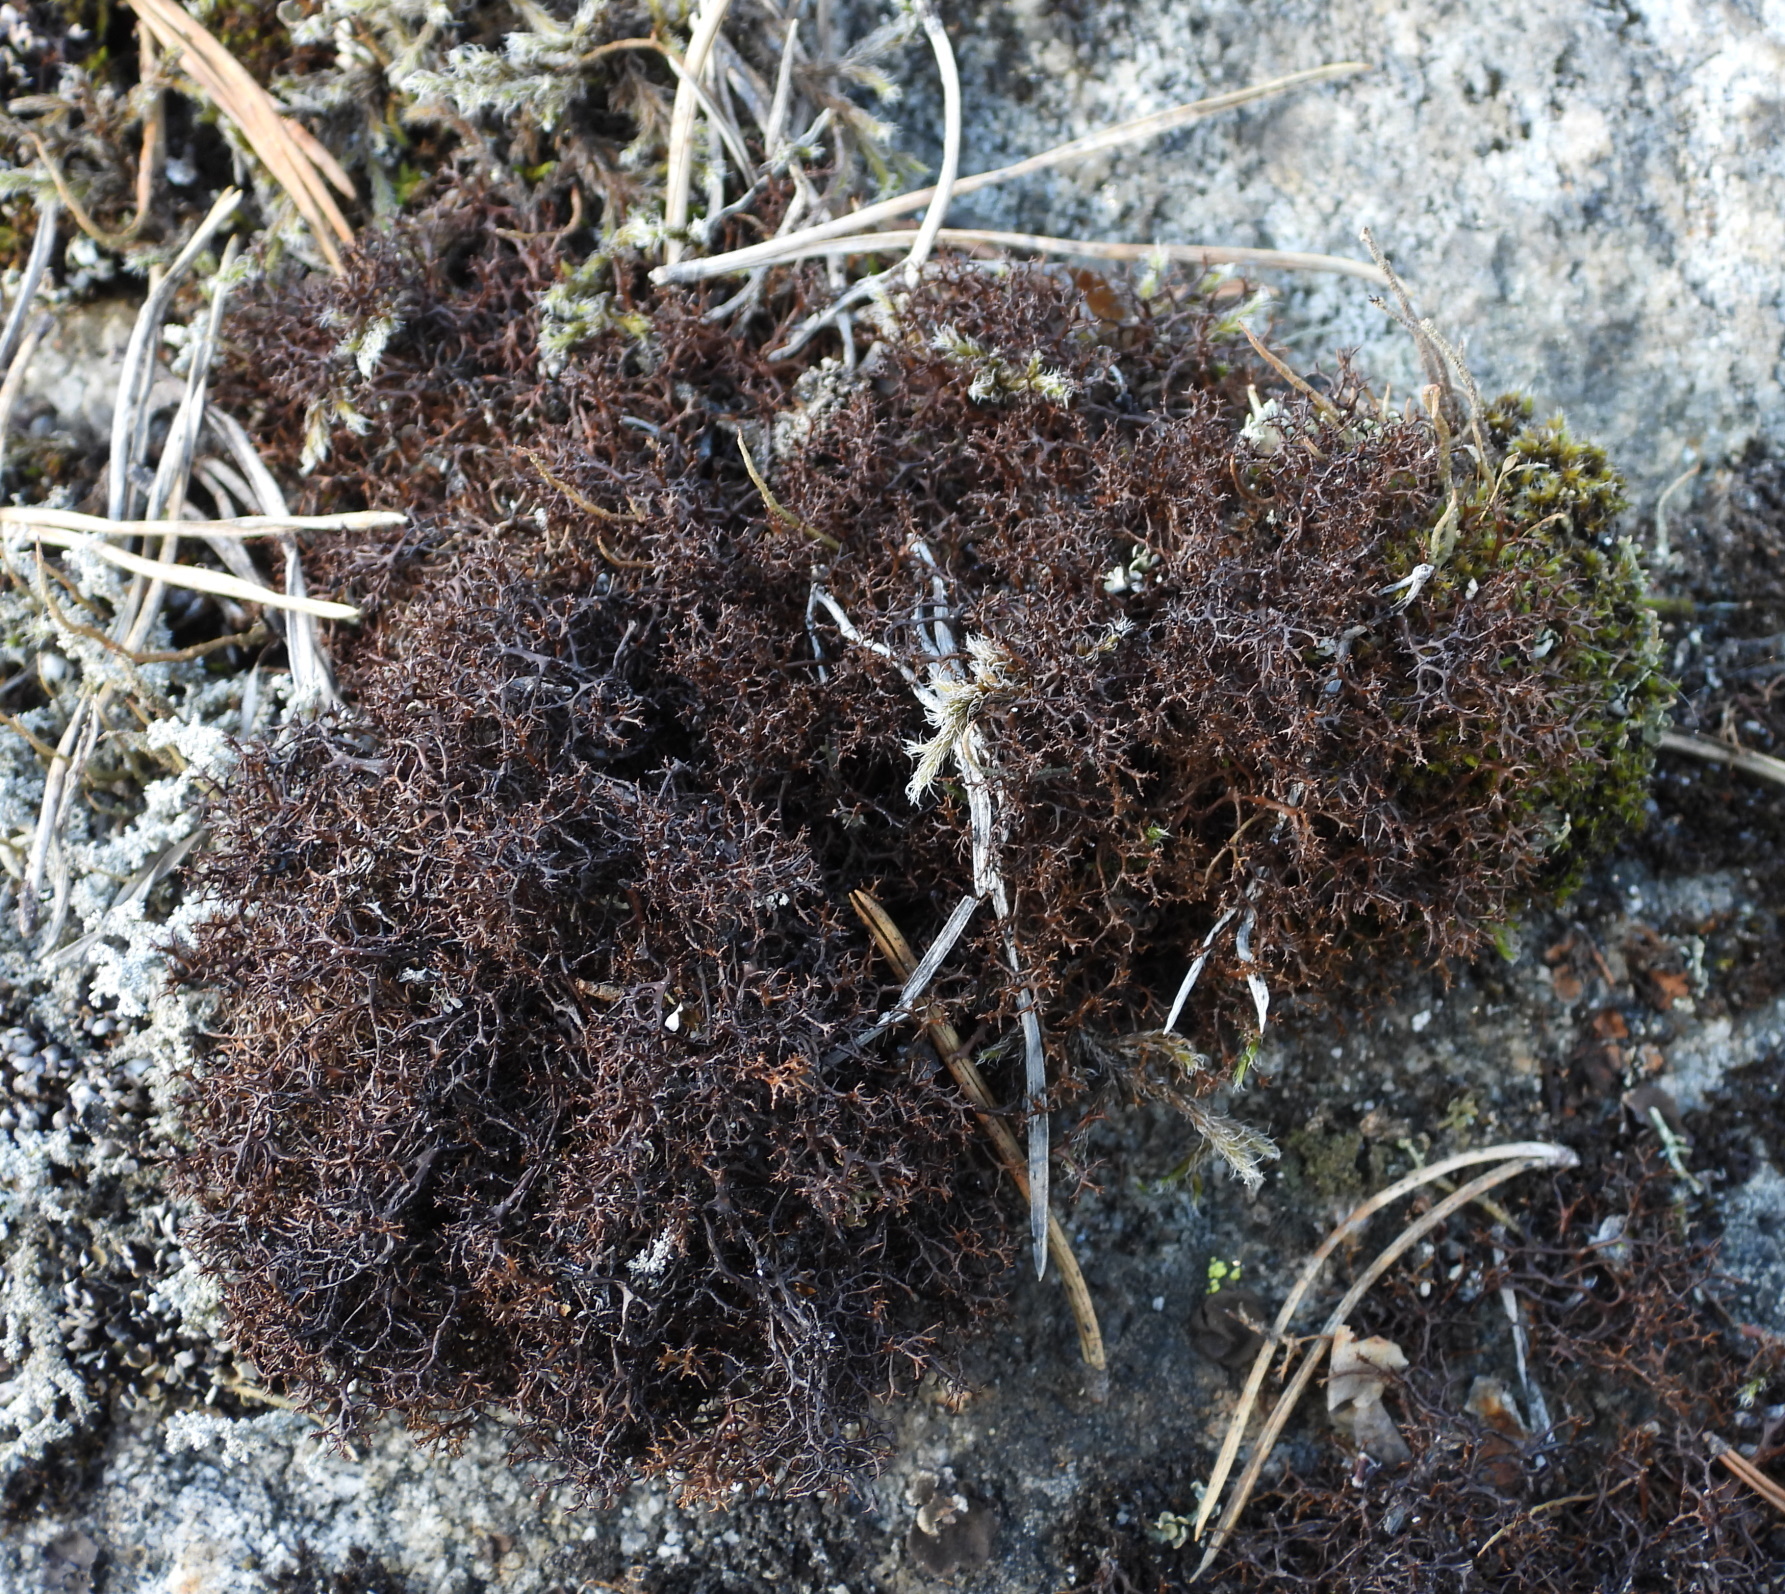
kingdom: Fungi
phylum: Ascomycota
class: Lecanoromycetes
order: Lecanorales
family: Parmeliaceae
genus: Cetraria
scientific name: Cetraria muricata
